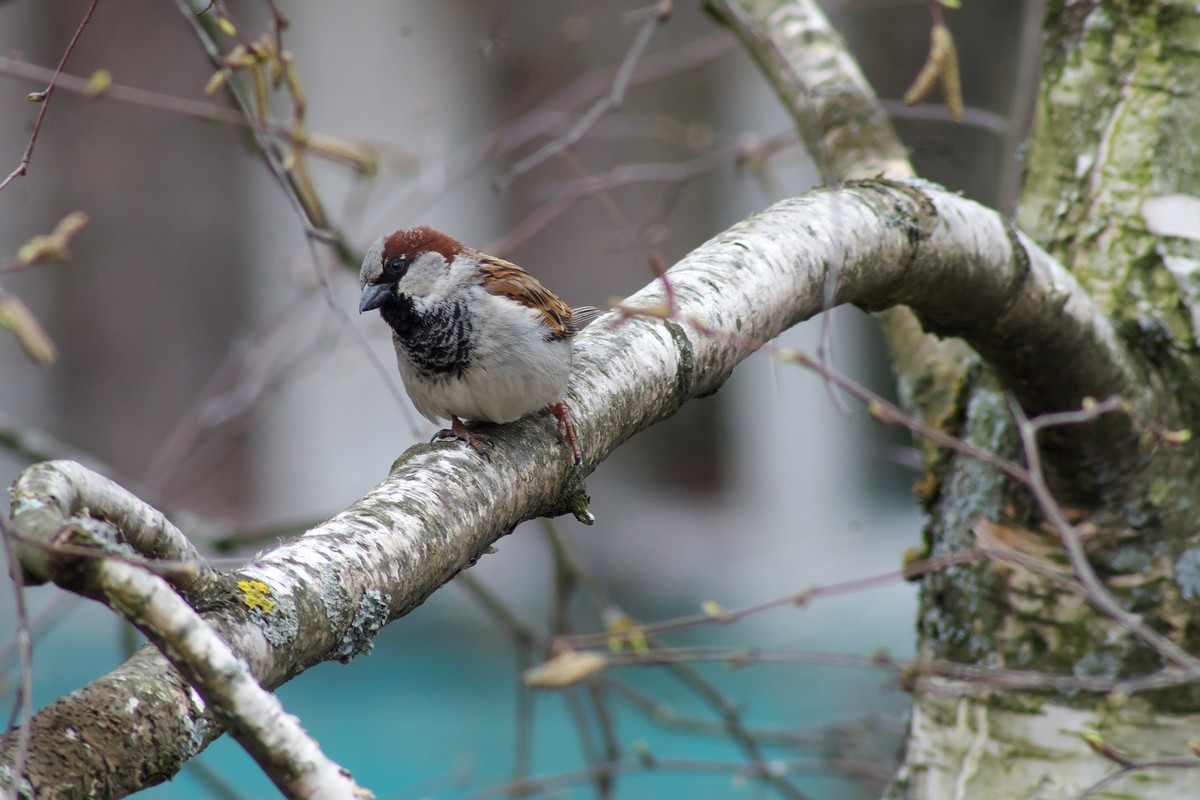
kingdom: Animalia
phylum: Chordata
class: Aves
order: Passeriformes
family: Passeridae
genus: Passer
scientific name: Passer domesticus
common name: House sparrow
